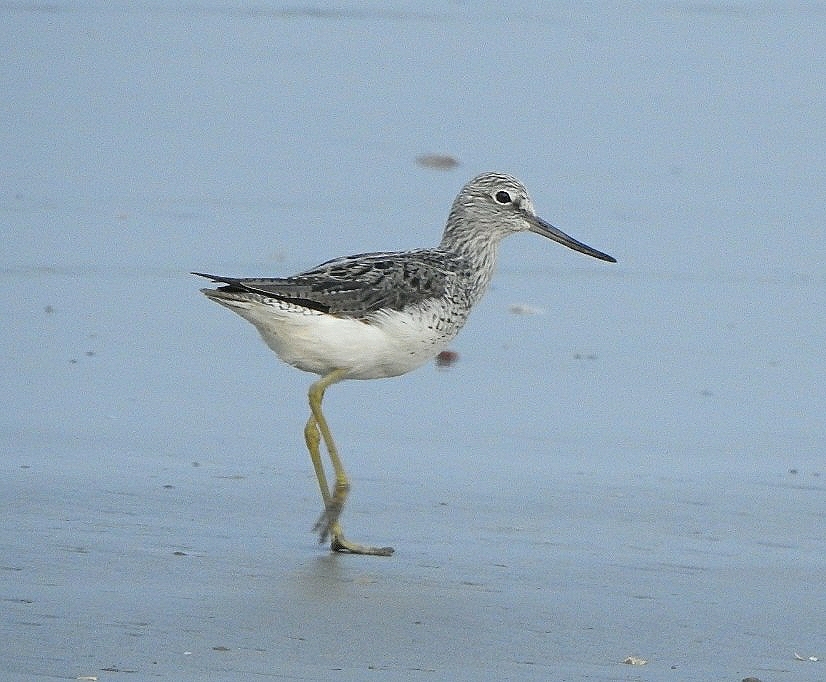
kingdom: Animalia
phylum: Chordata
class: Aves
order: Charadriiformes
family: Scolopacidae
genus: Tringa
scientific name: Tringa nebularia
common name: Common greenshank
